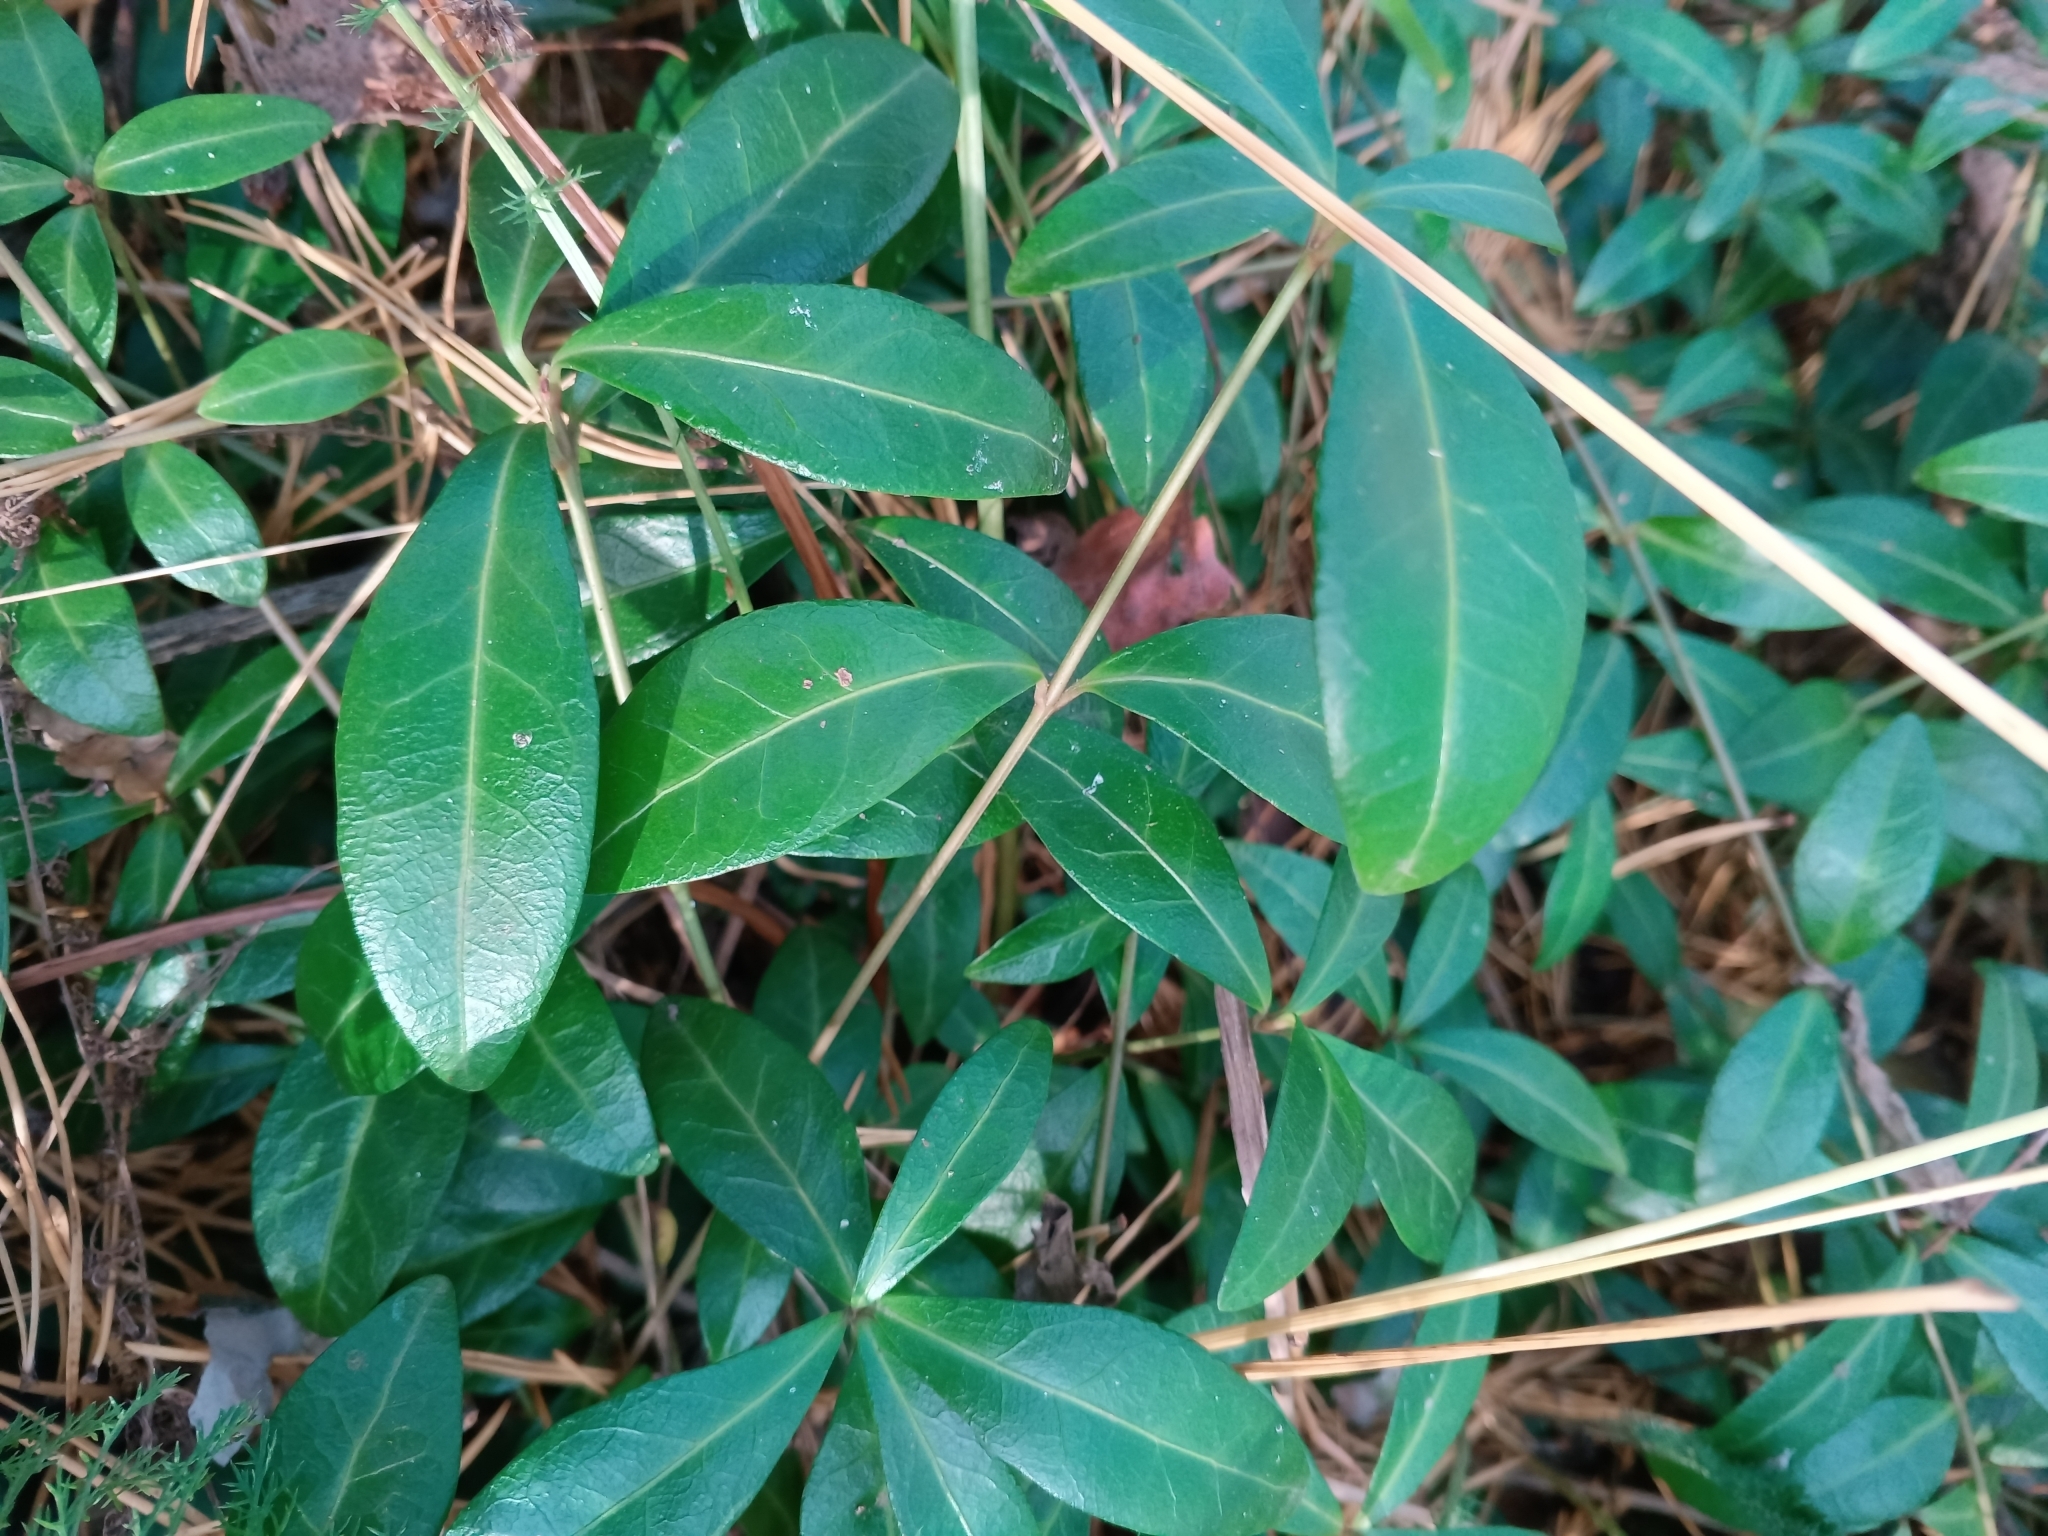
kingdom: Plantae
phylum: Tracheophyta
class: Magnoliopsida
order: Gentianales
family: Apocynaceae
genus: Vinca
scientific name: Vinca minor
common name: Lesser periwinkle
